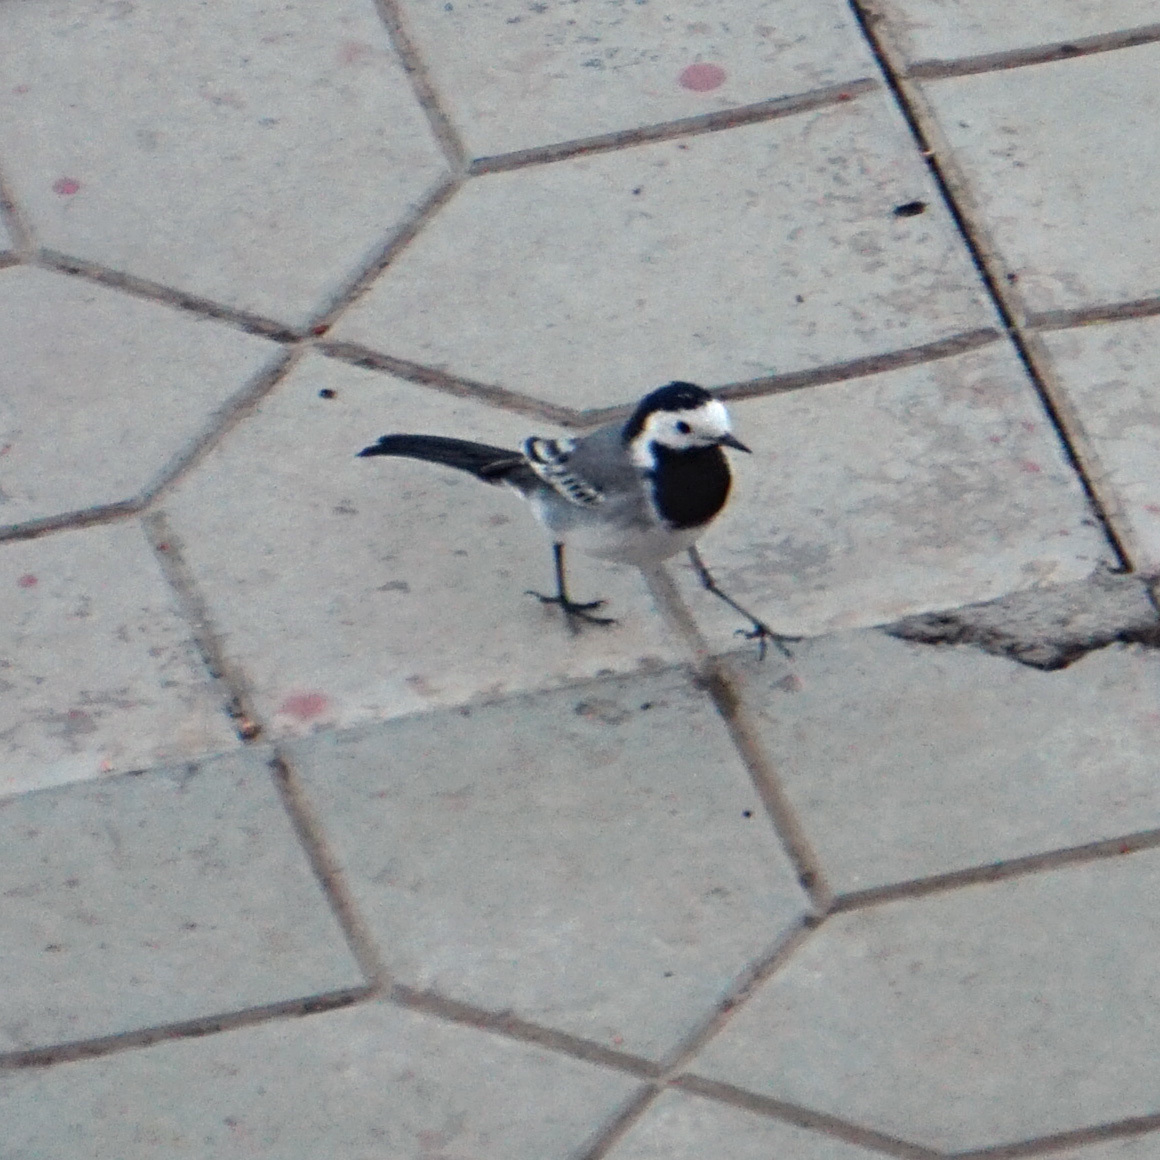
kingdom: Animalia
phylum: Chordata
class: Aves
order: Passeriformes
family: Motacillidae
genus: Motacilla
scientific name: Motacilla alba
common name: White wagtail
